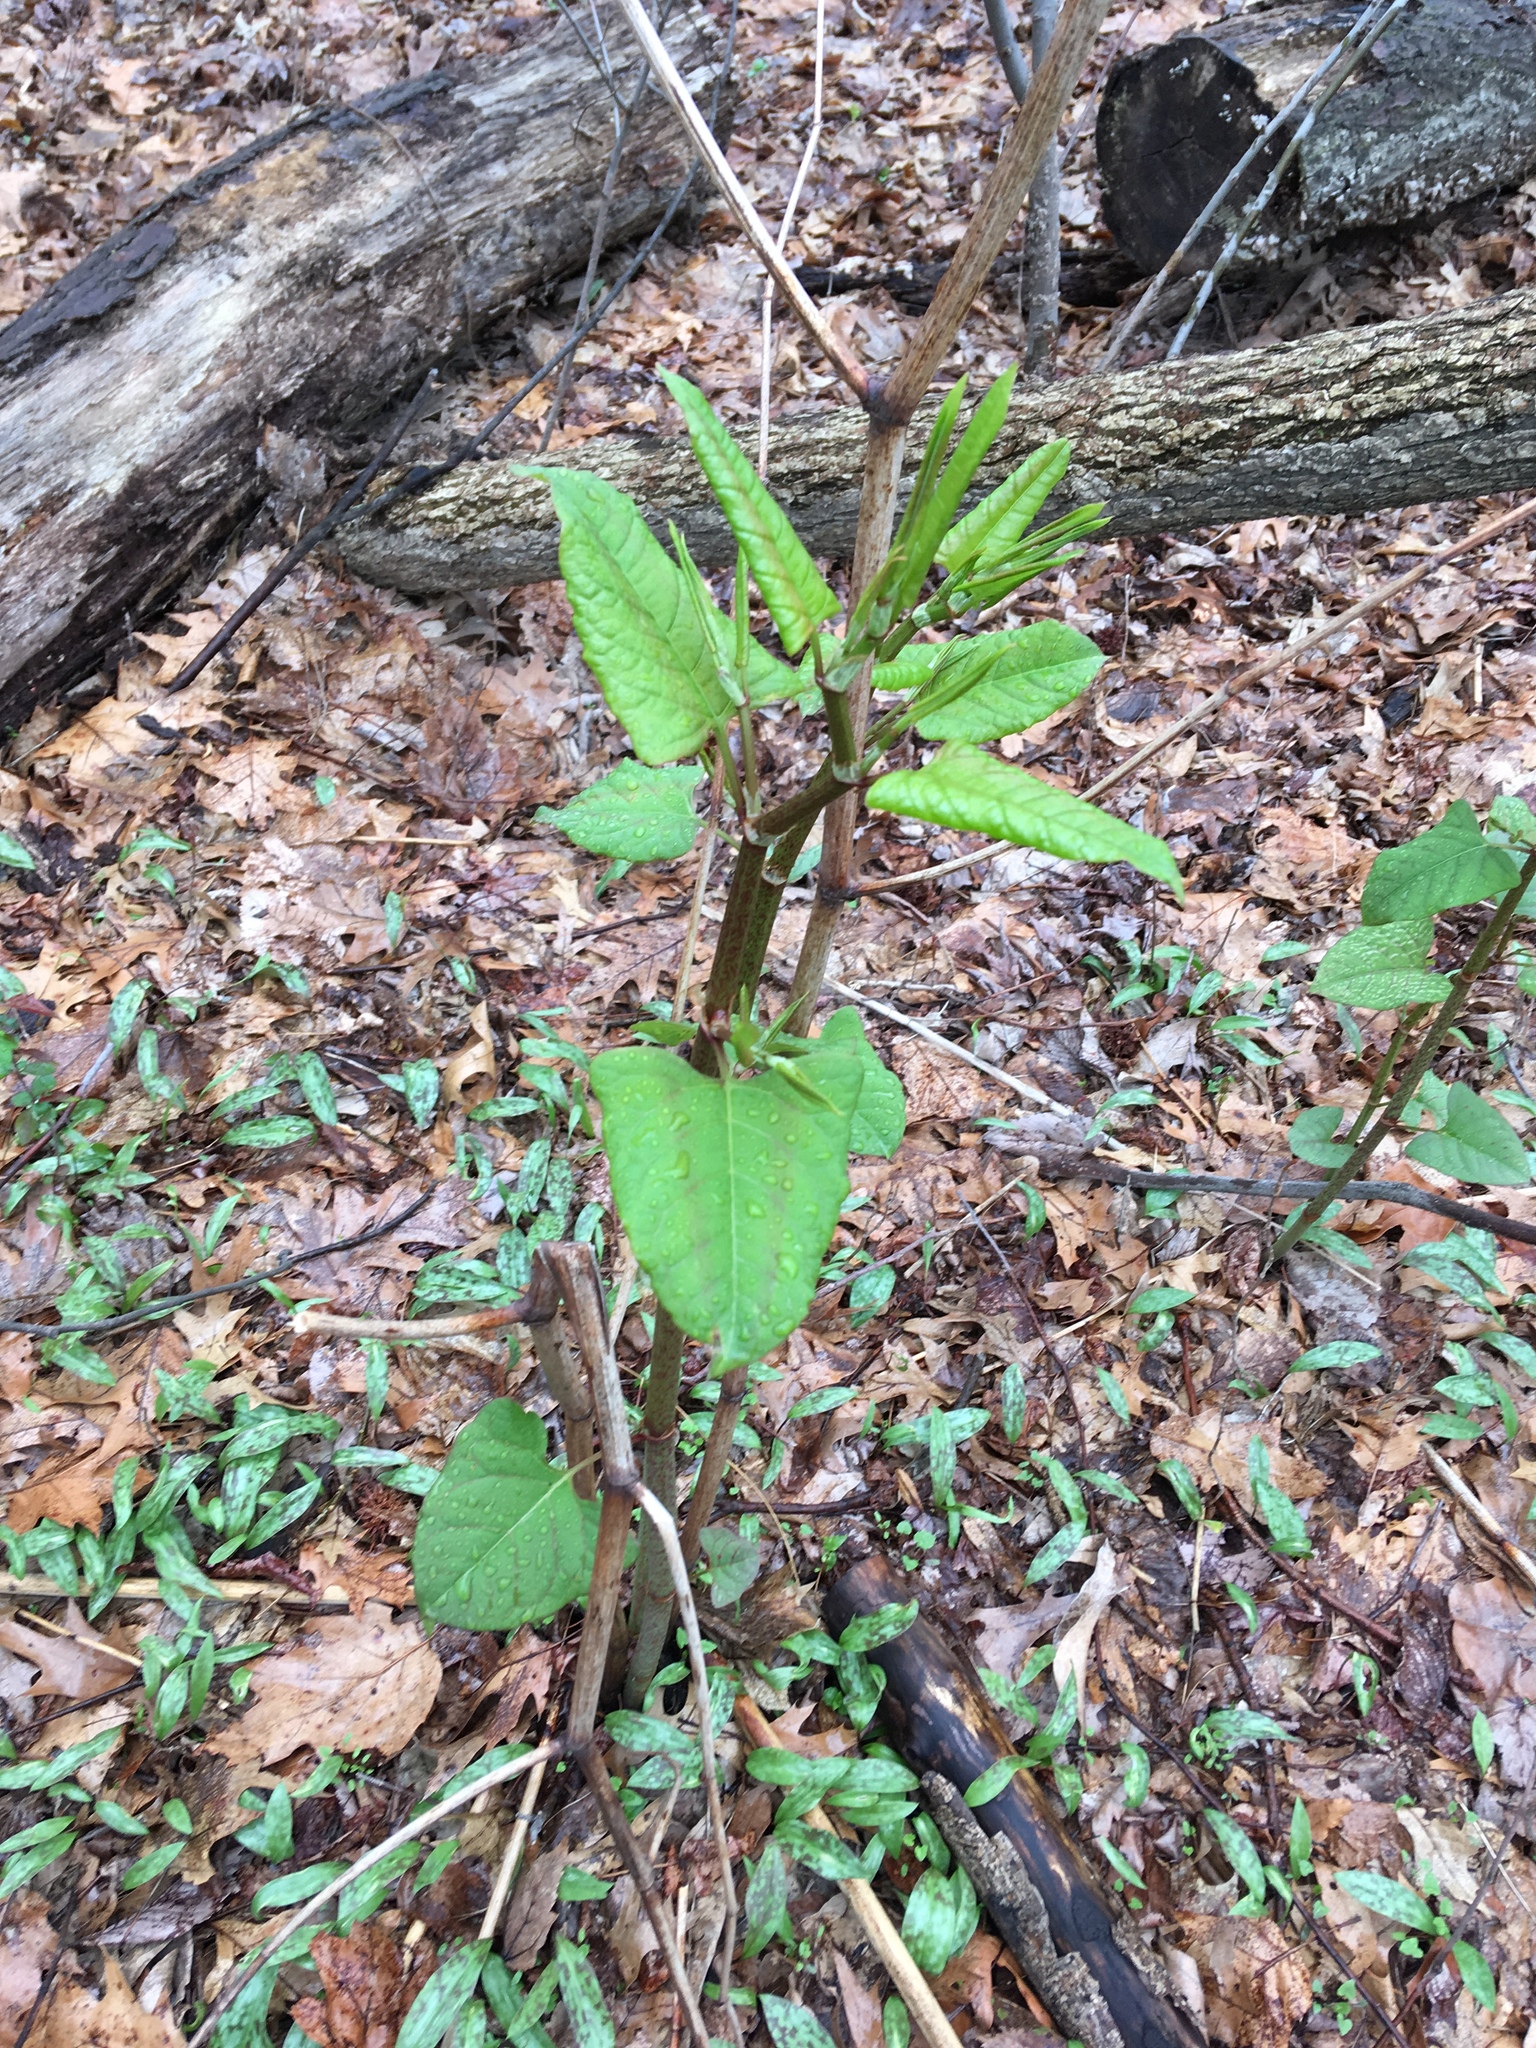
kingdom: Plantae
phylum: Tracheophyta
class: Magnoliopsida
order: Caryophyllales
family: Polygonaceae
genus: Reynoutria
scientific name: Reynoutria japonica
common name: Japanese knotweed
